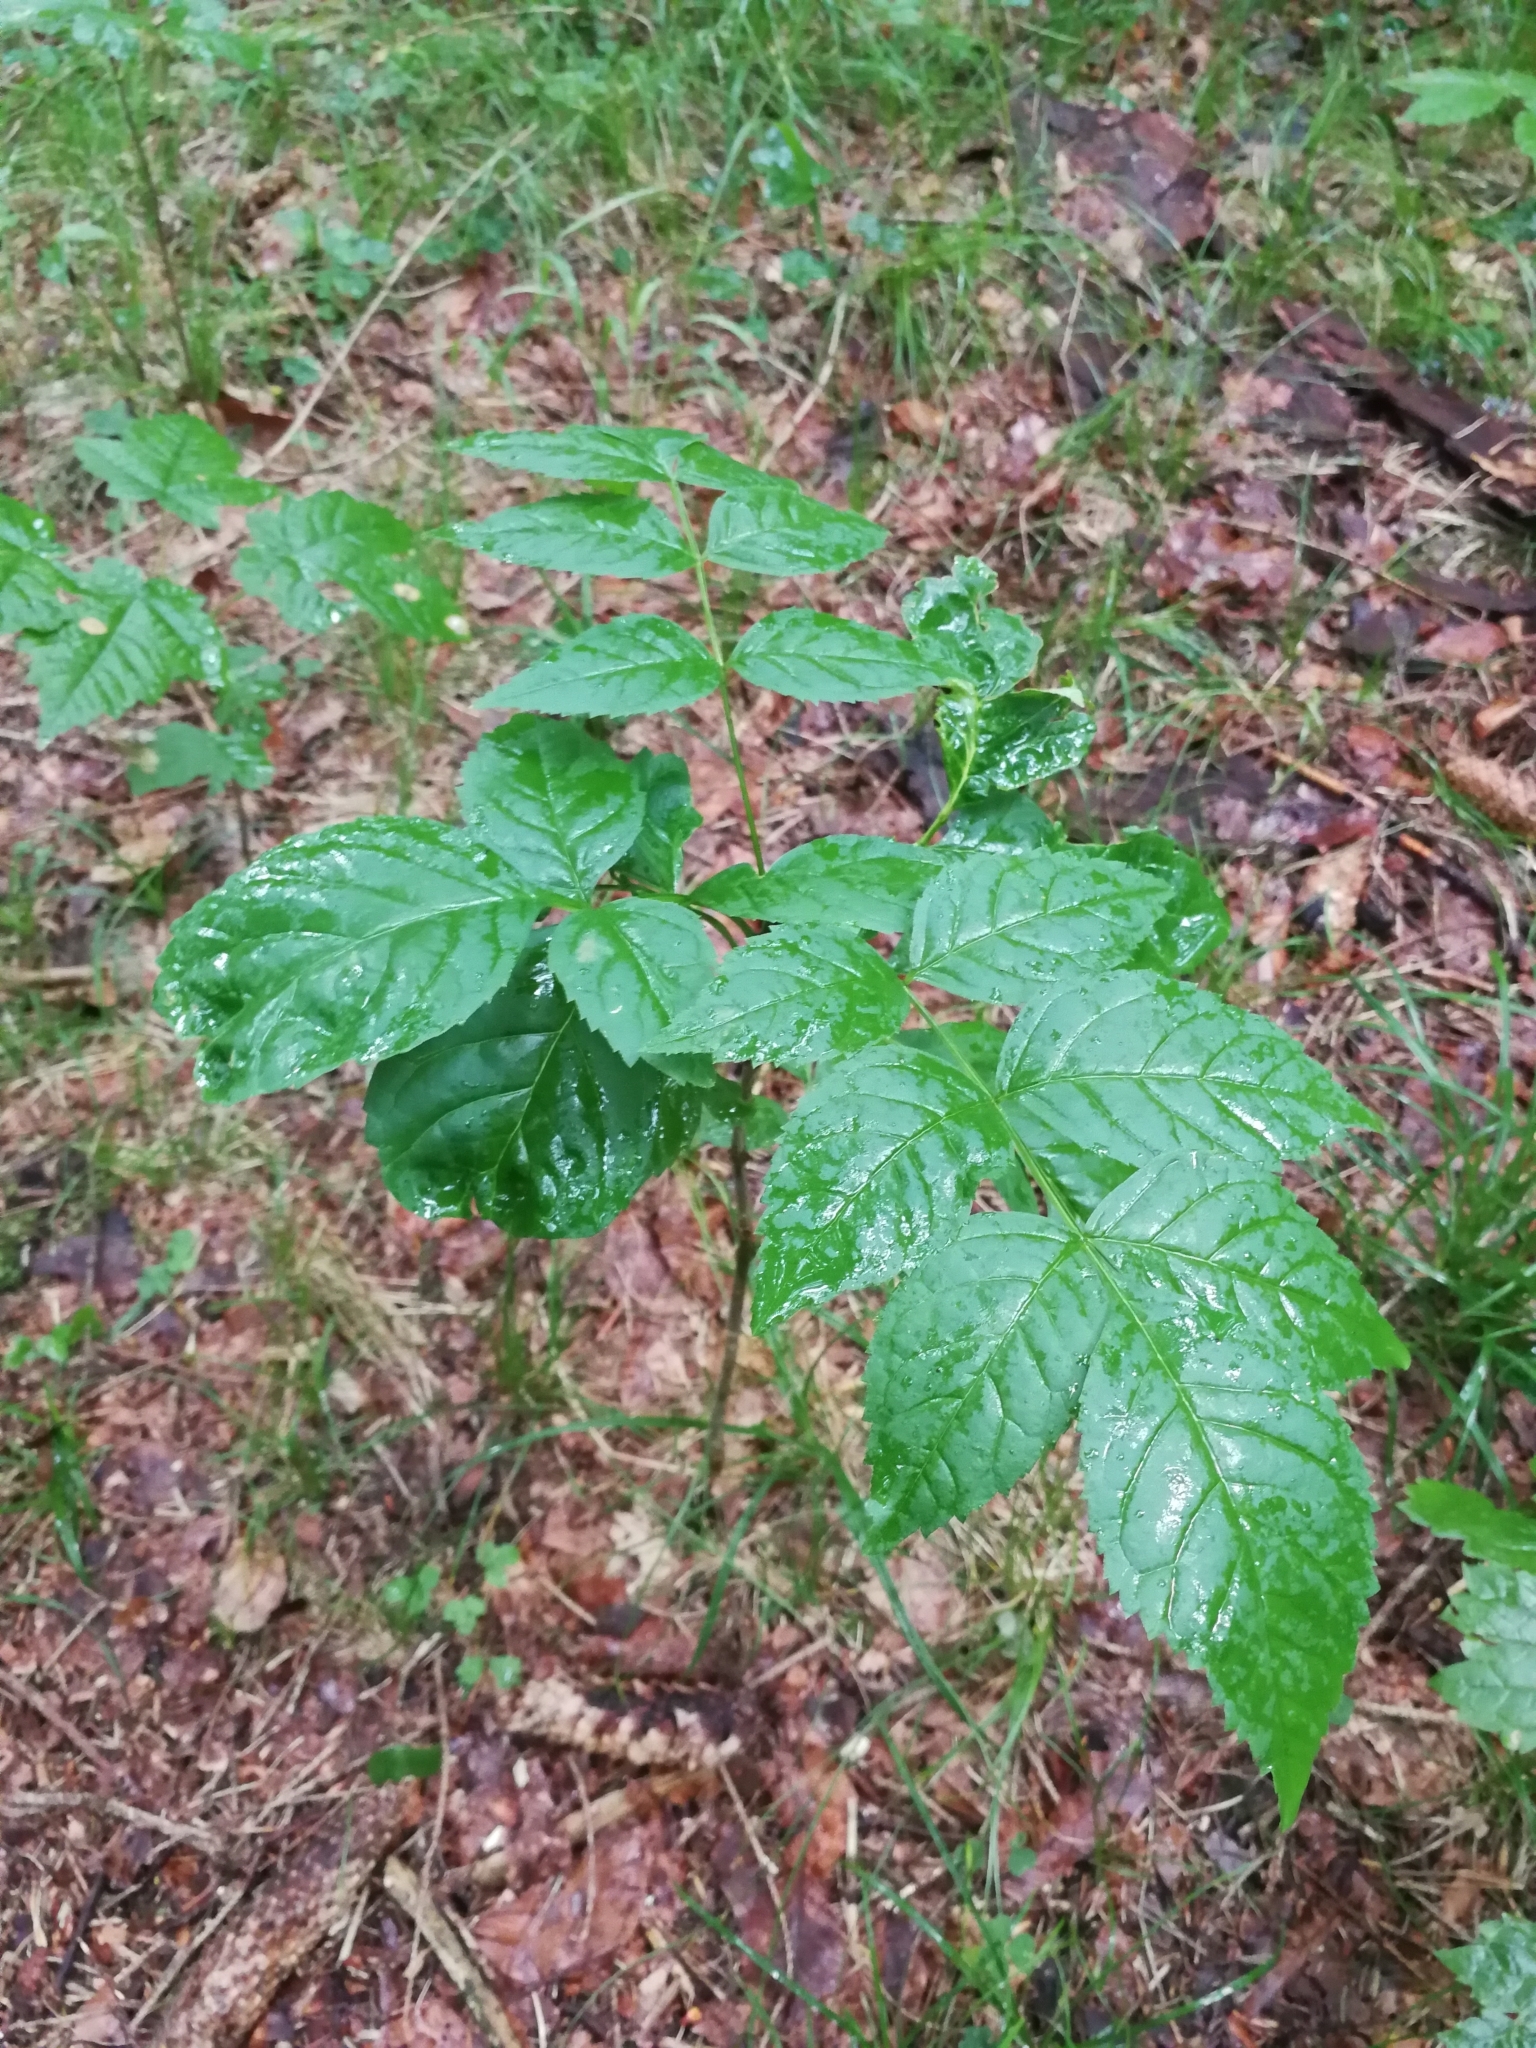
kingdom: Plantae
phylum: Tracheophyta
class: Magnoliopsida
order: Lamiales
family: Oleaceae
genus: Fraxinus
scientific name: Fraxinus excelsior
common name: European ash
